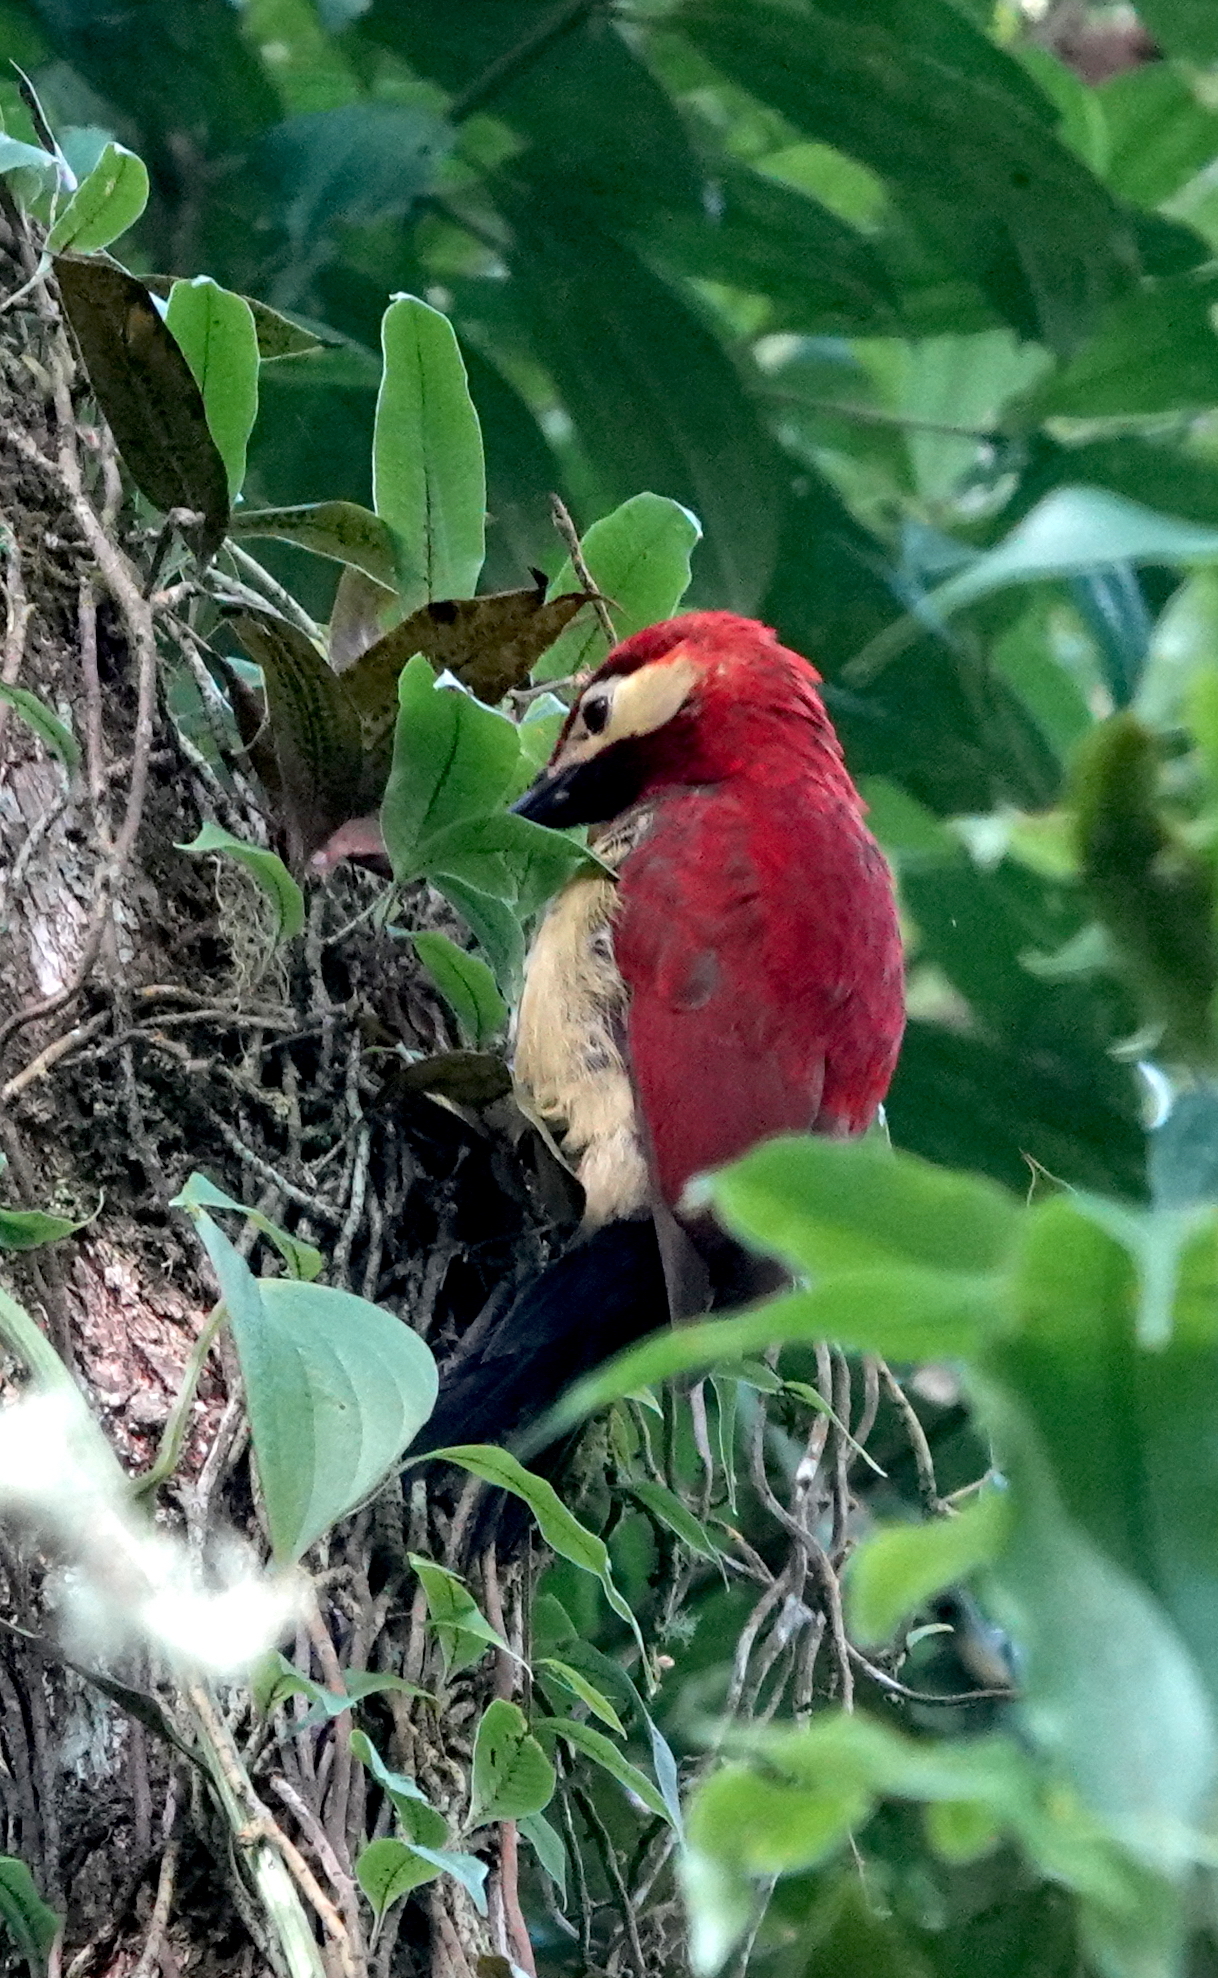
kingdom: Animalia
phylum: Chordata
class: Aves
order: Piciformes
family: Picidae
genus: Colaptes
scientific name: Colaptes rivolii
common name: Crimson-mantled woodpecker
